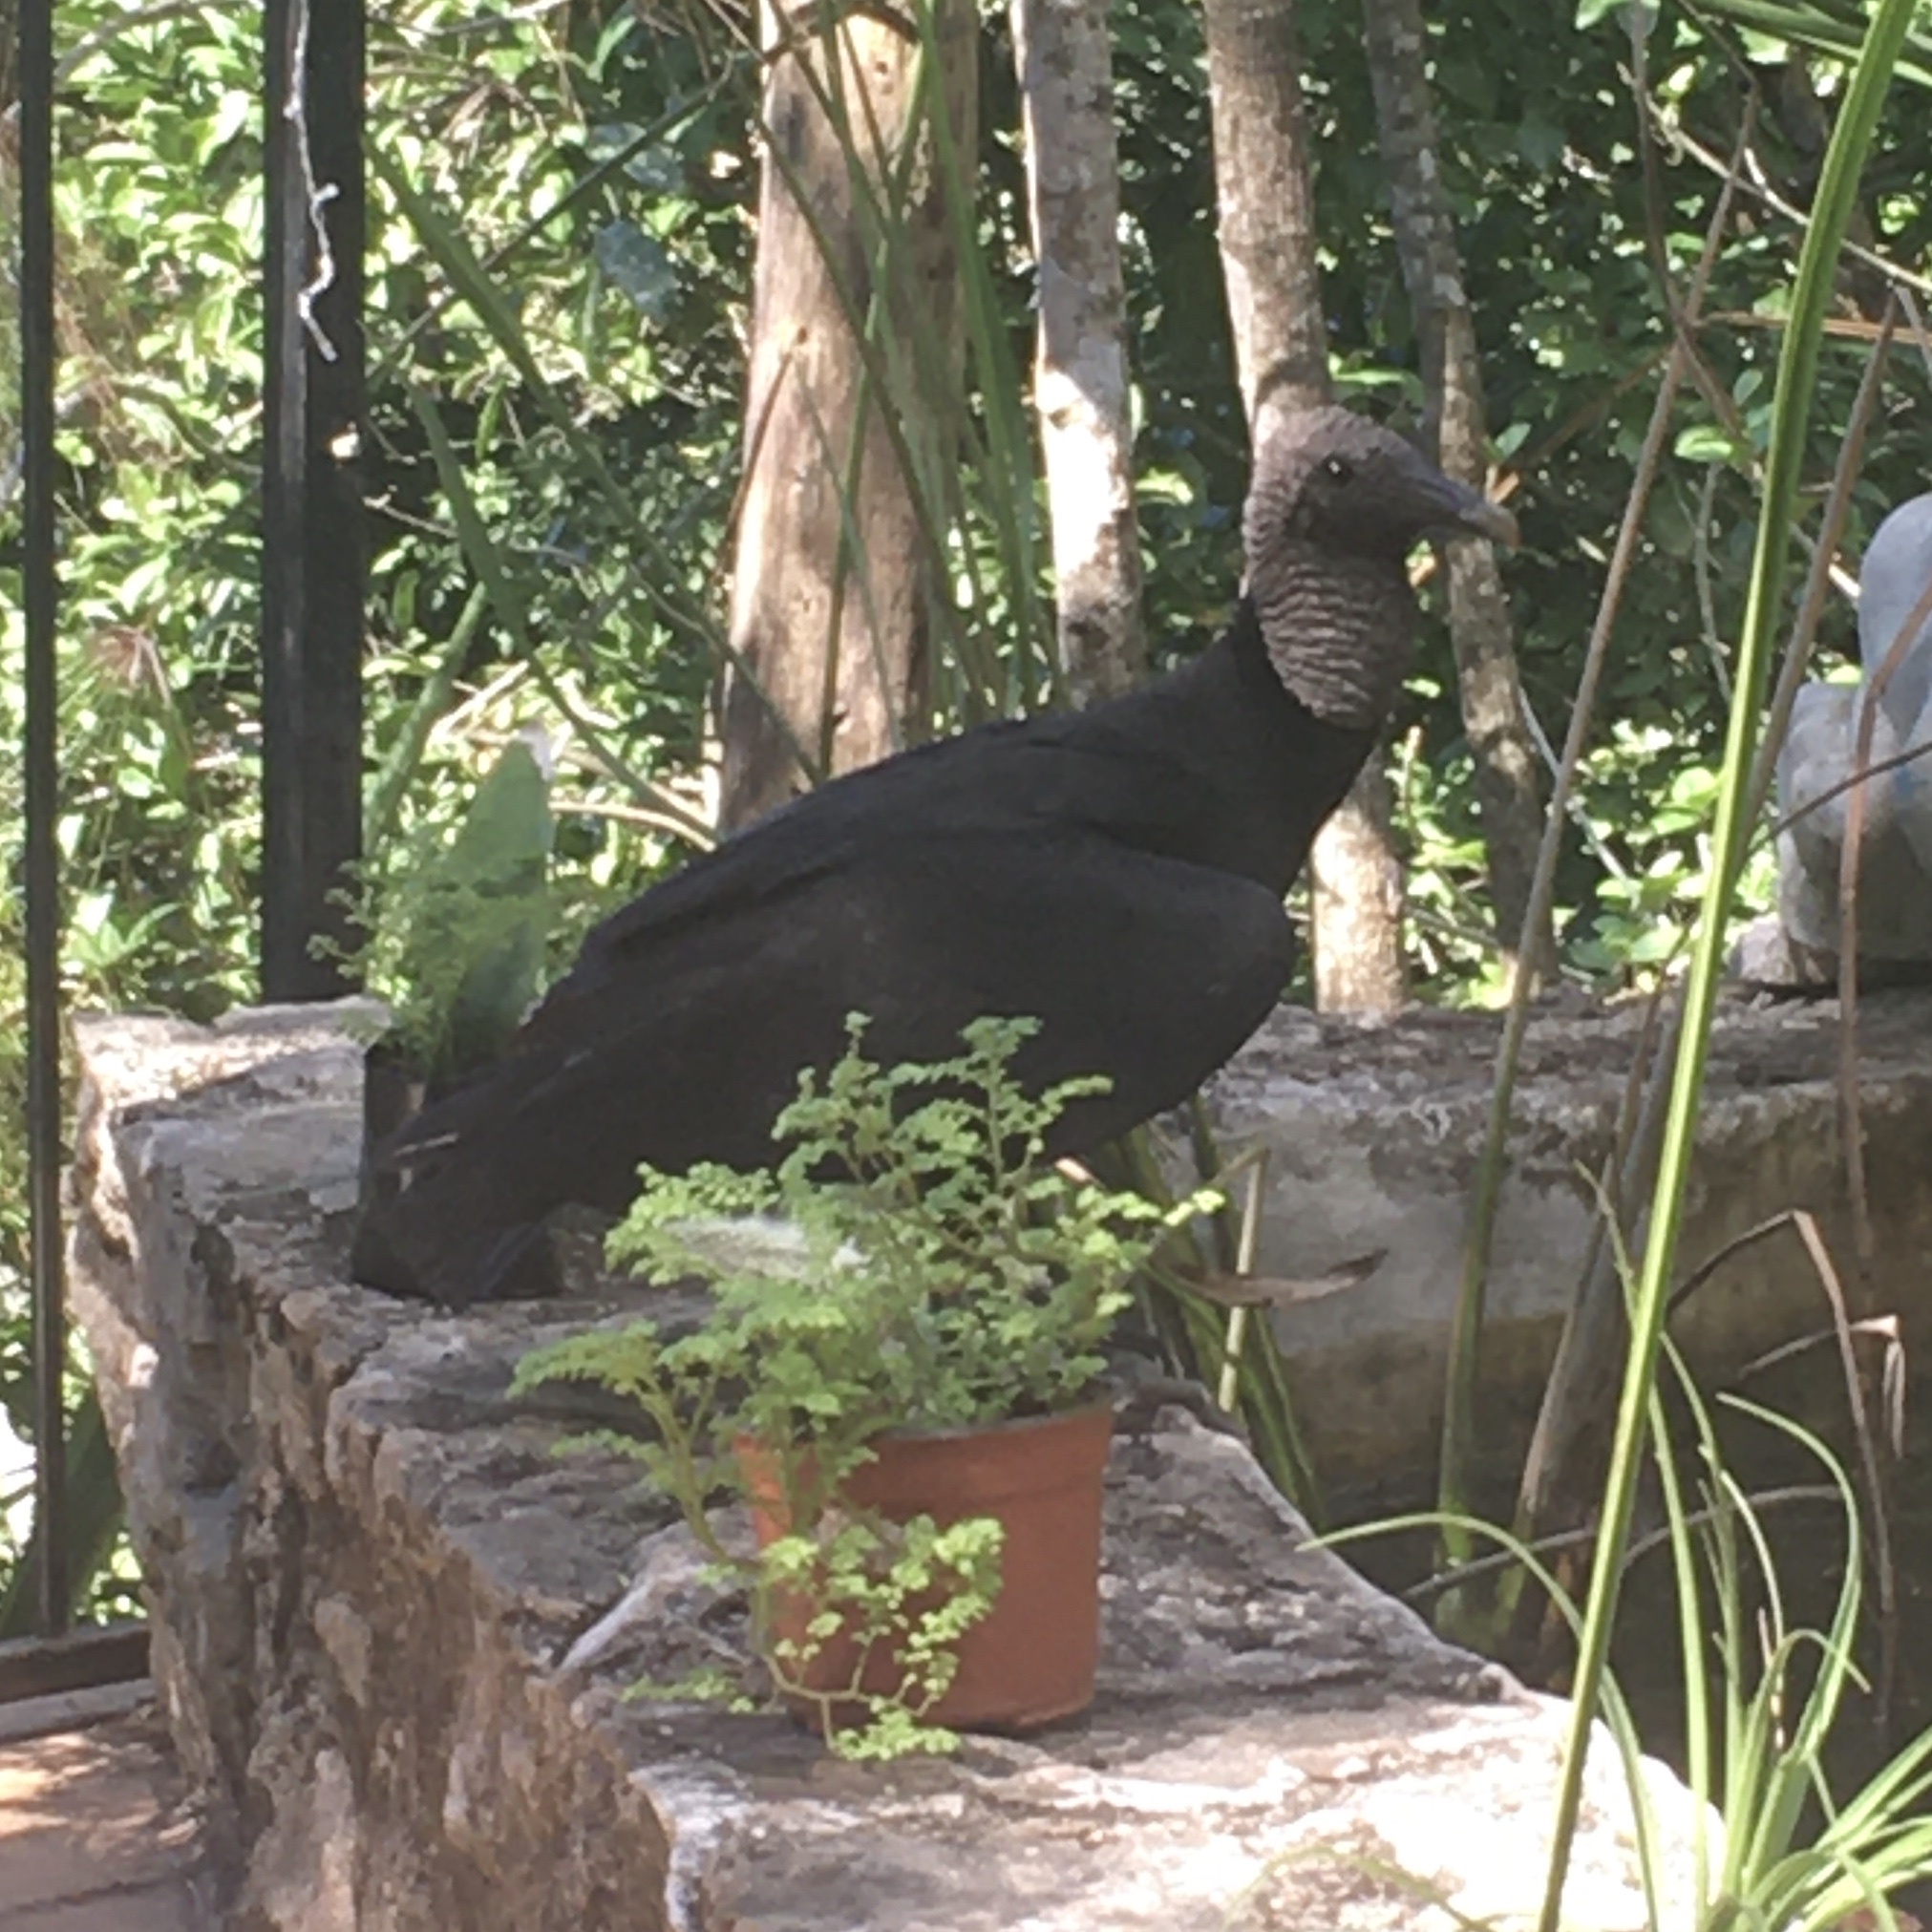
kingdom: Animalia
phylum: Chordata
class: Aves
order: Accipitriformes
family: Cathartidae
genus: Coragyps
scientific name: Coragyps atratus
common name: Black vulture
